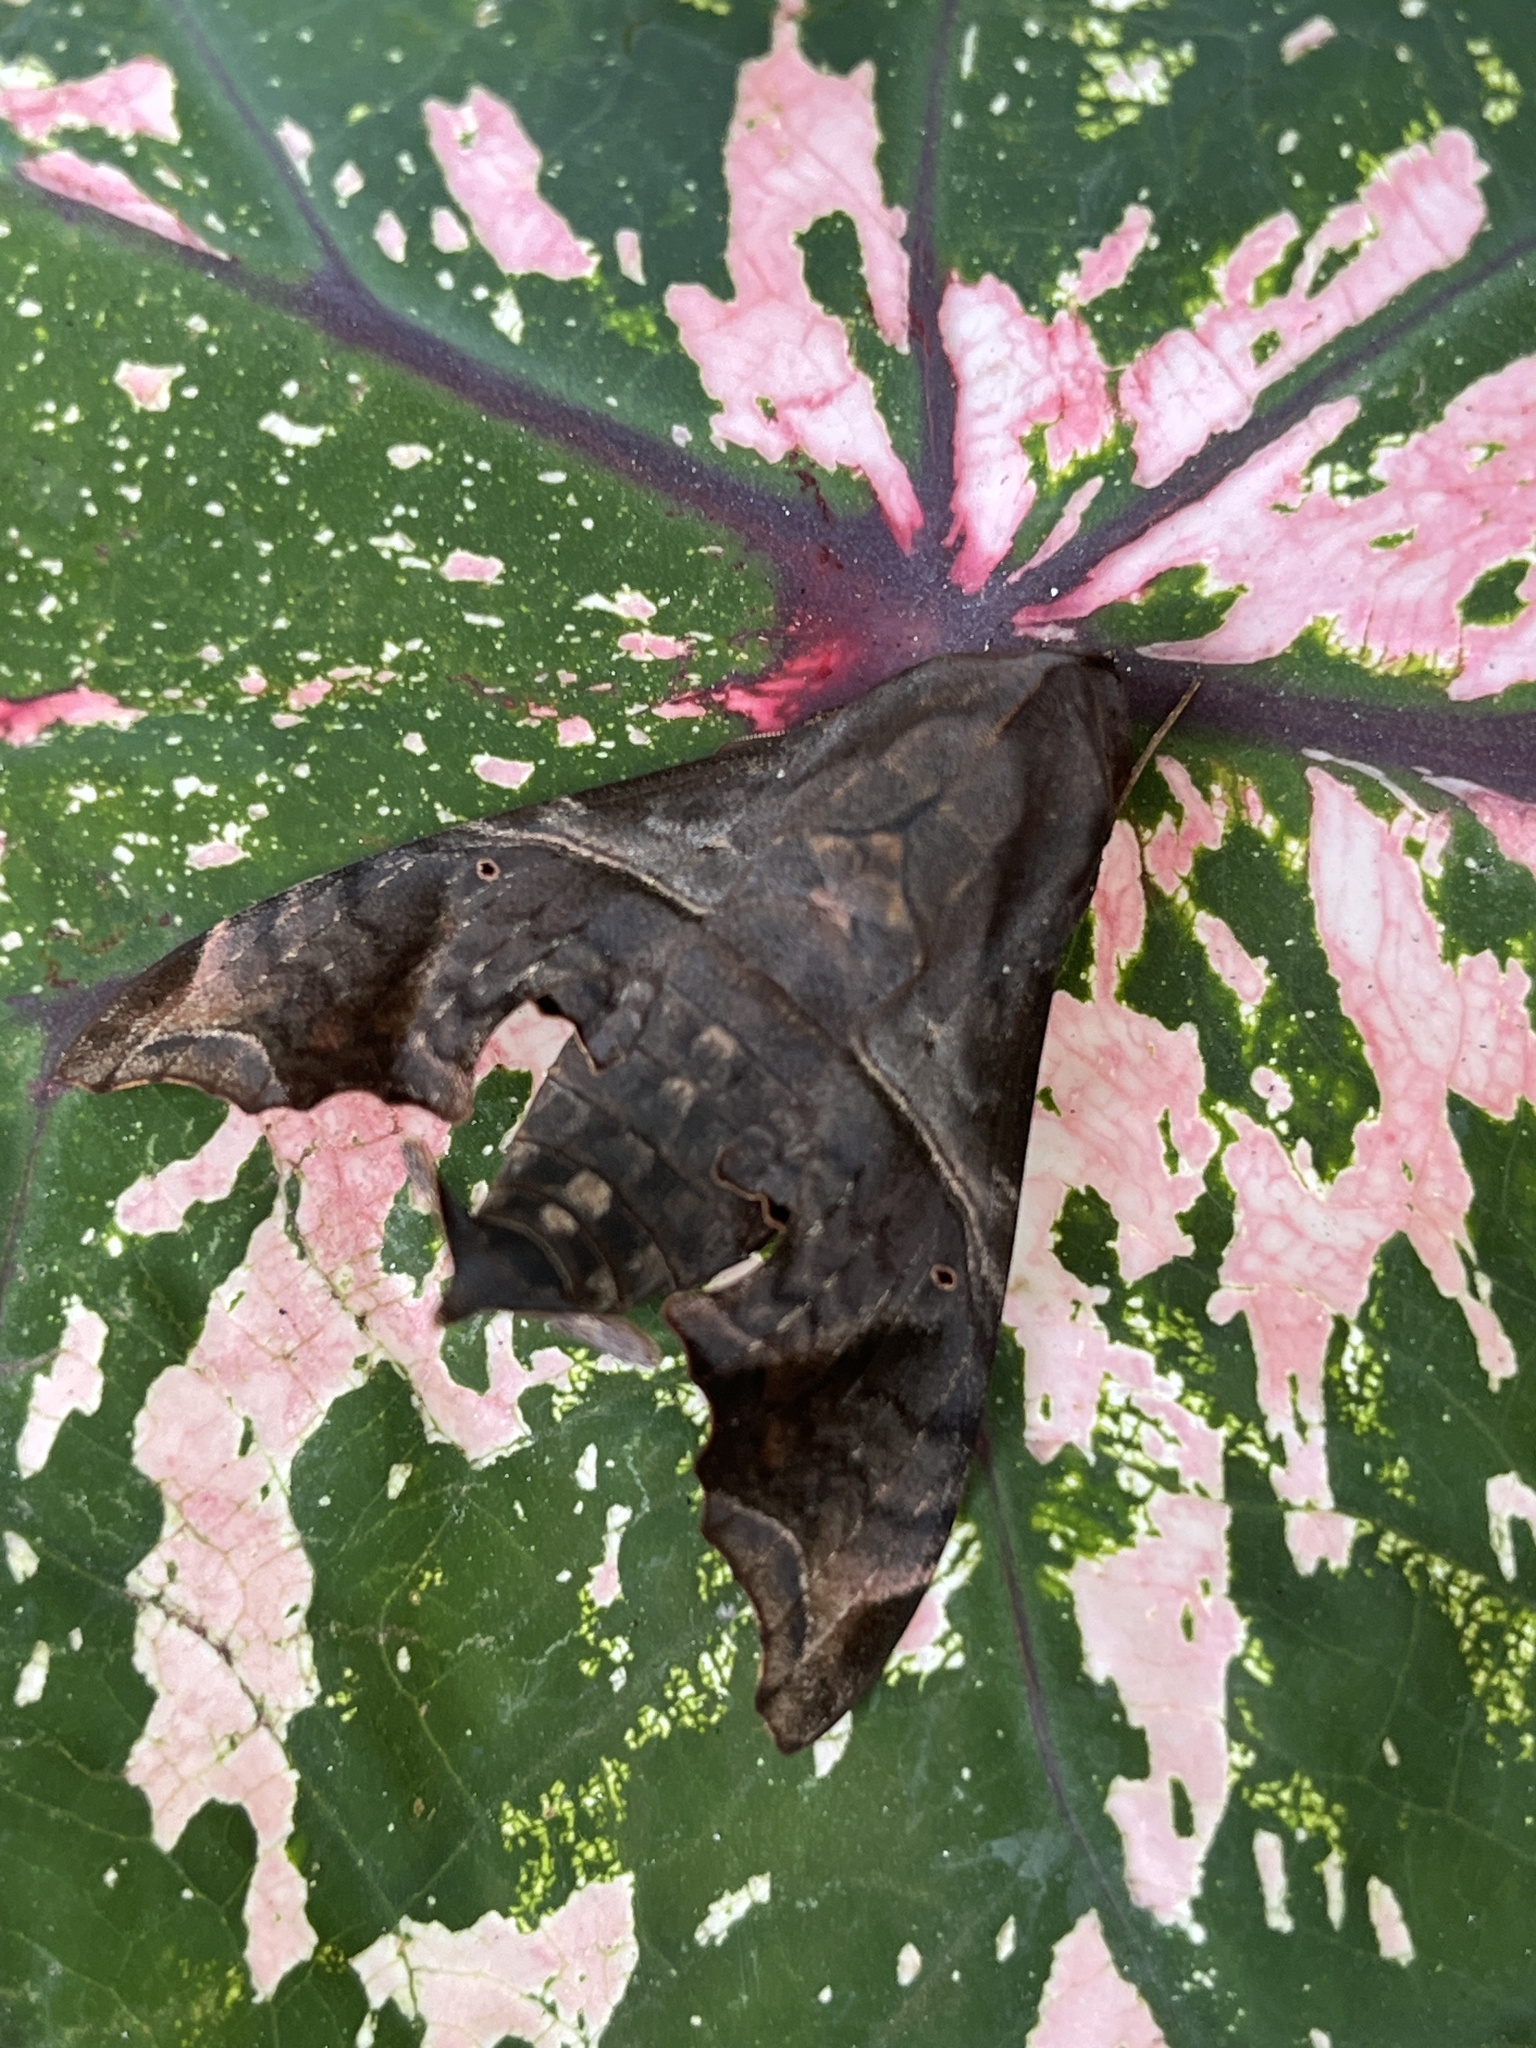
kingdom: Animalia
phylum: Arthropoda
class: Insecta
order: Lepidoptera
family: Sphingidae
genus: Enyo
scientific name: Enyo lugubris
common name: Mournful sphinx
